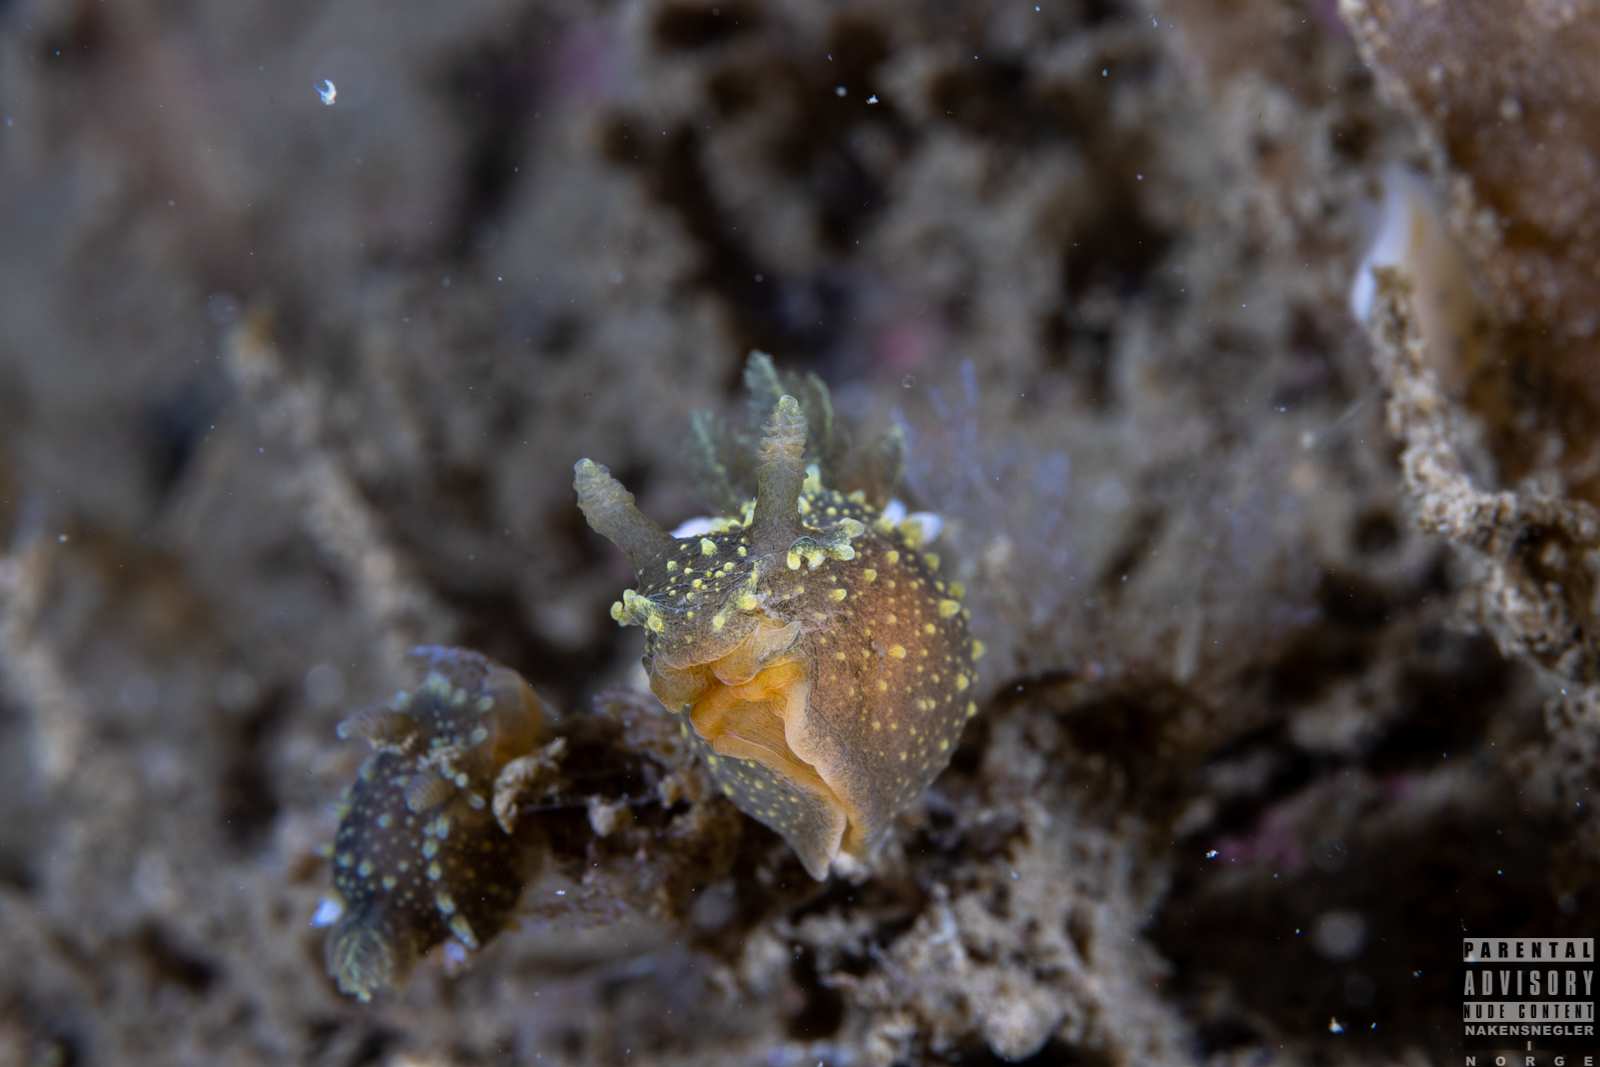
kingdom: Animalia
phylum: Mollusca
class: Gastropoda
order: Nudibranchia
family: Polyceridae
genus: Palio
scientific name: Palio dubia
